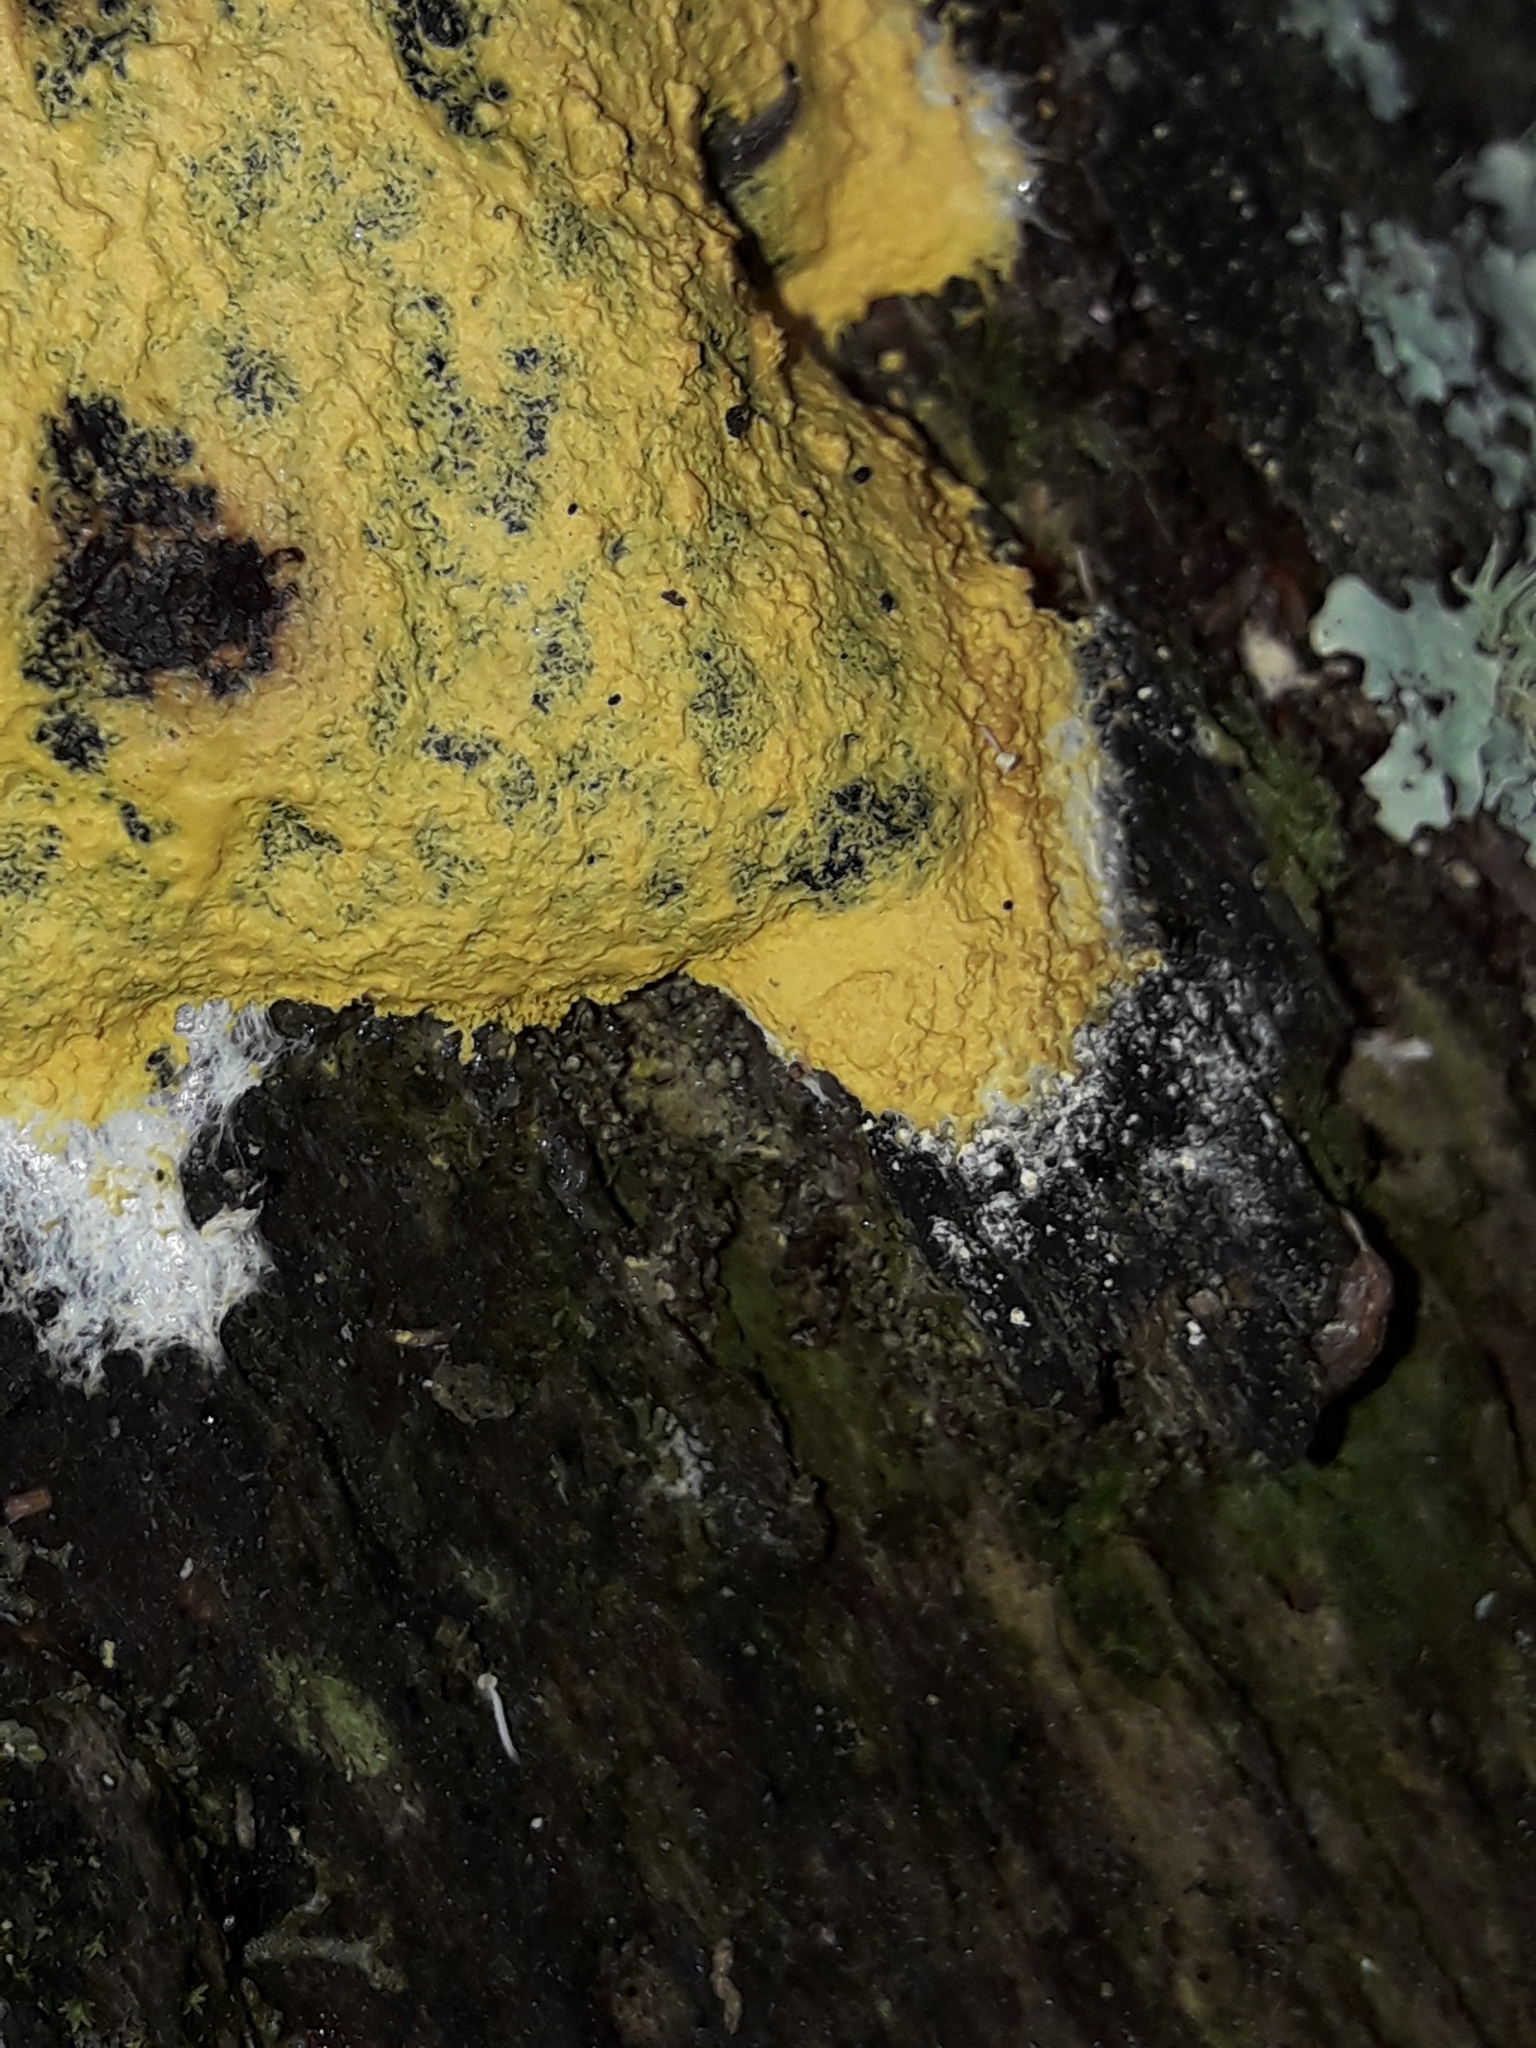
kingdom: Protozoa
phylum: Mycetozoa
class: Myxomycetes
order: Physarales
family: Physaraceae
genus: Fuligo
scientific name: Fuligo septica
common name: Dog vomit slime mold
